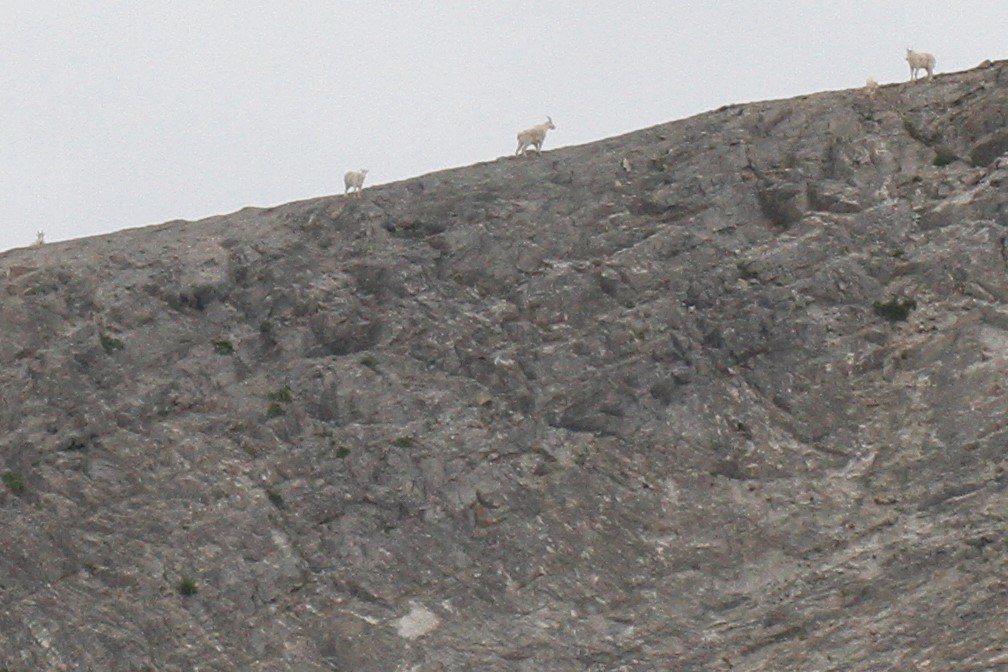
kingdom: Animalia
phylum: Chordata
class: Mammalia
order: Artiodactyla
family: Bovidae
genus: Oreamnos
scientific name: Oreamnos americanus
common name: Mountain goat
